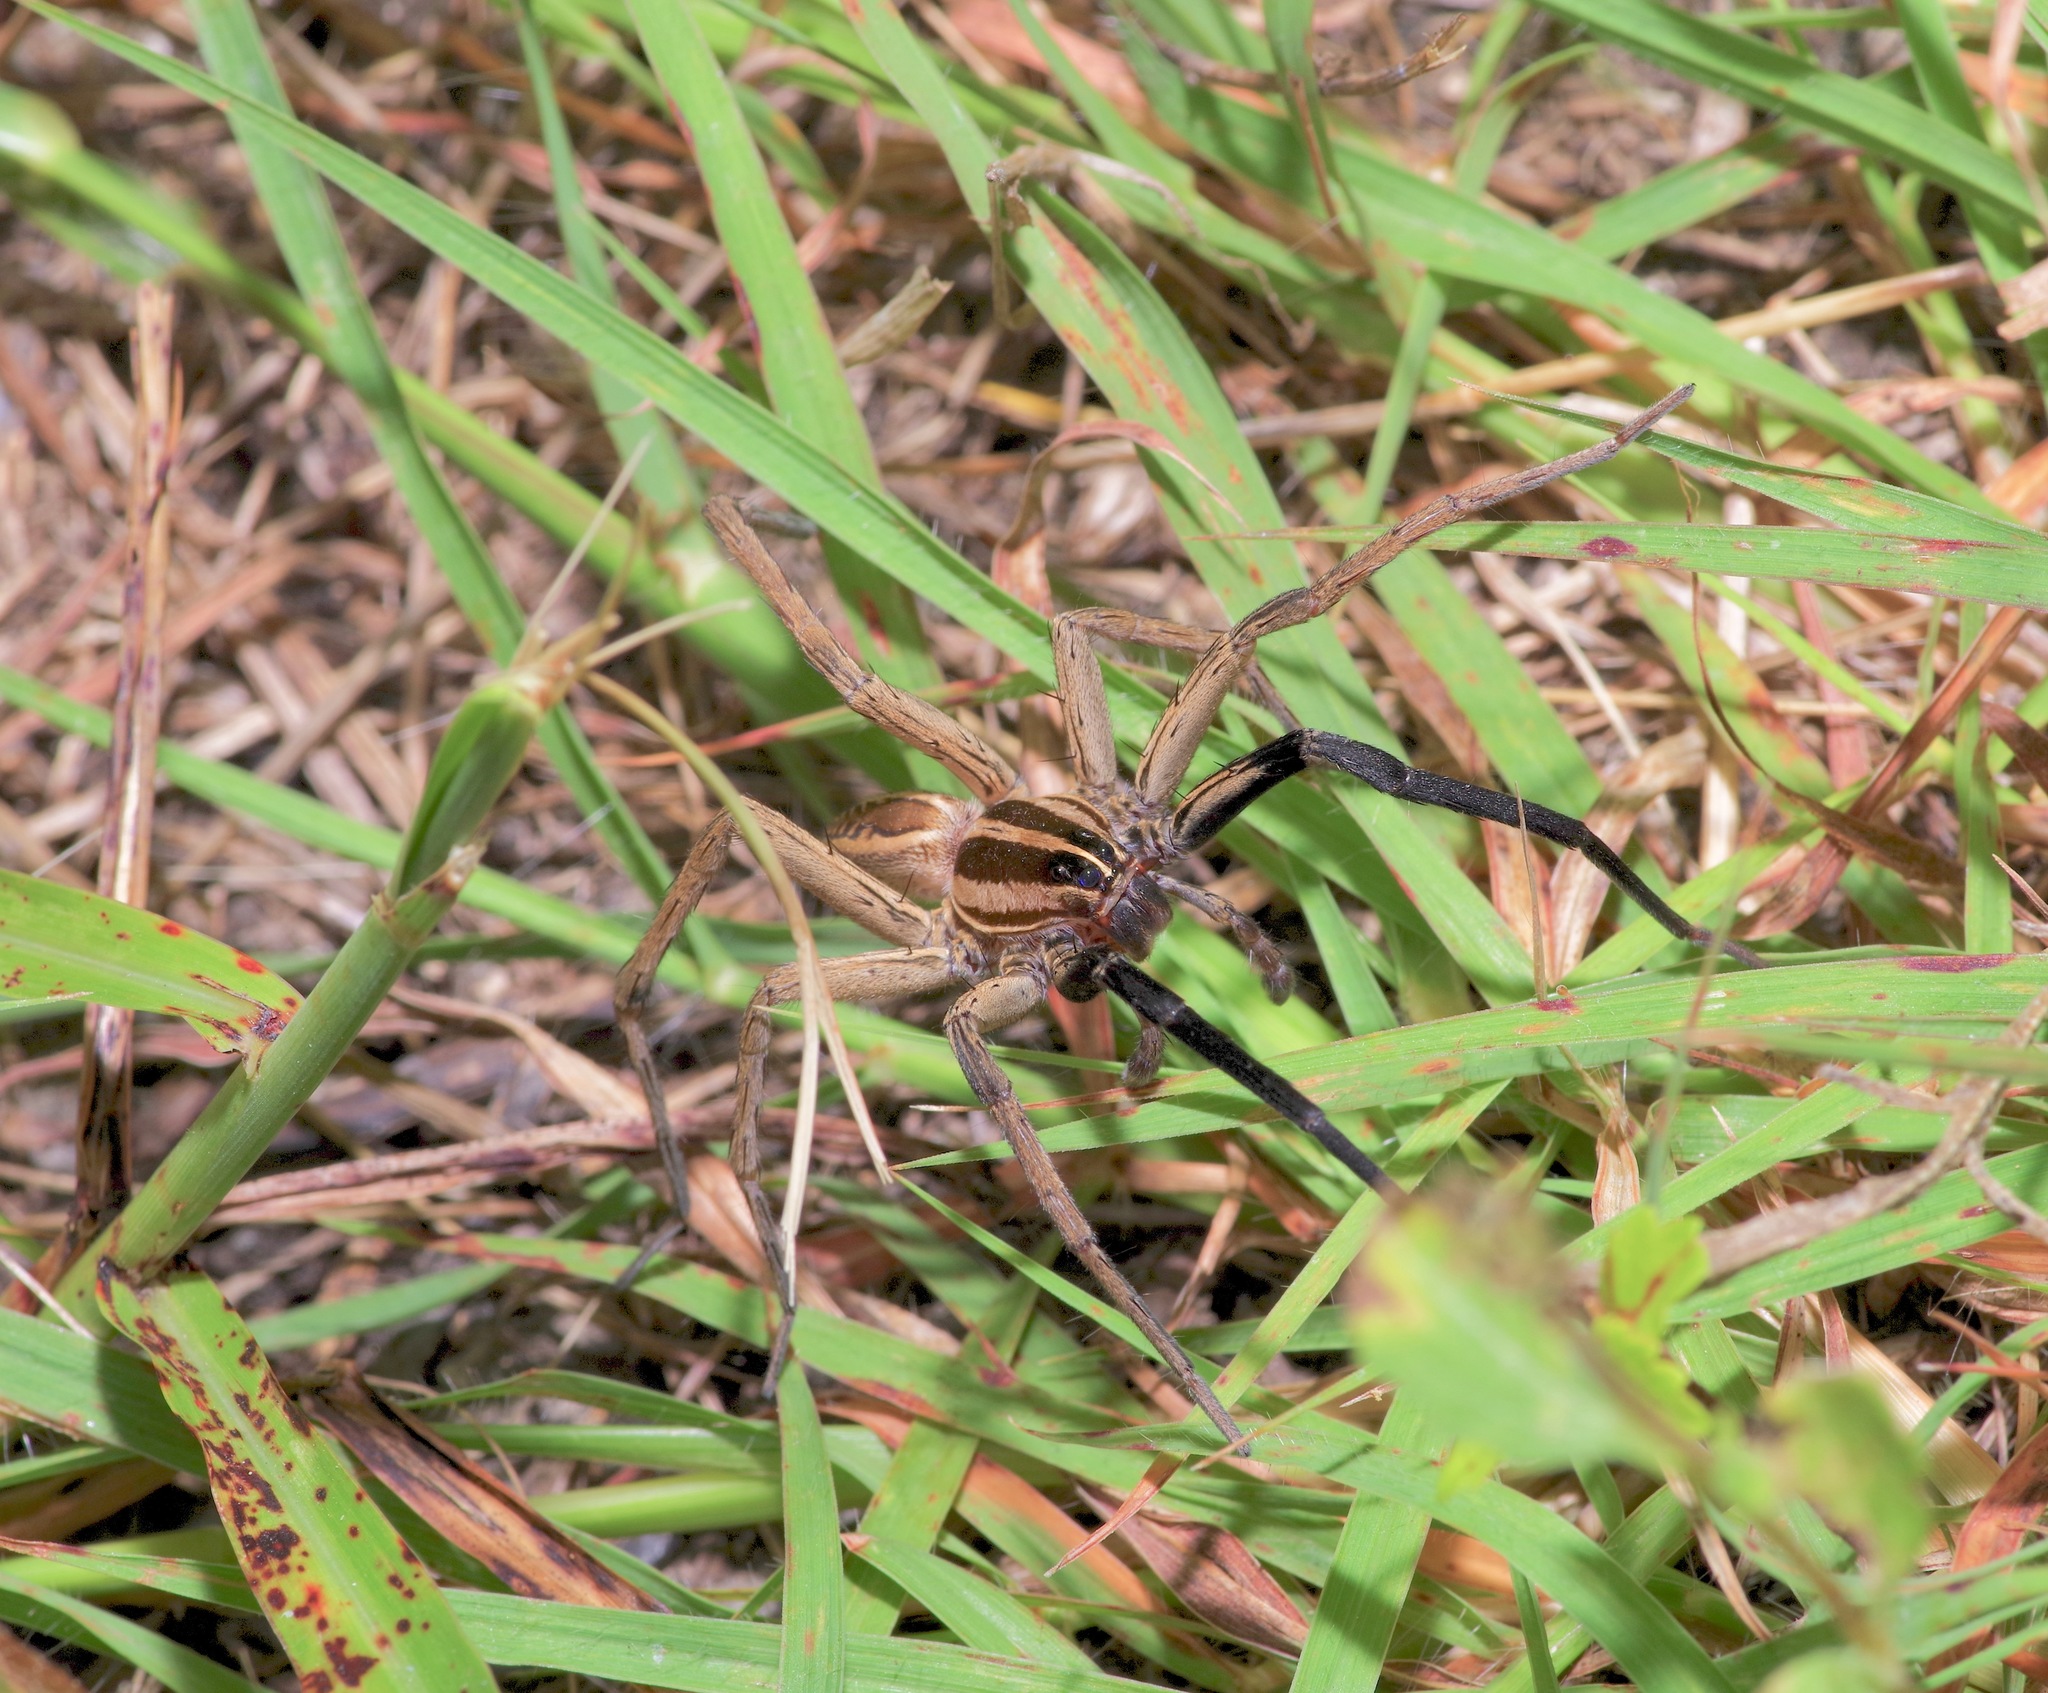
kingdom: Animalia
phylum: Arthropoda
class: Arachnida
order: Araneae
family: Lycosidae
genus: Rabidosa
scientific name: Rabidosa rabida
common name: Rabid wolf spider
